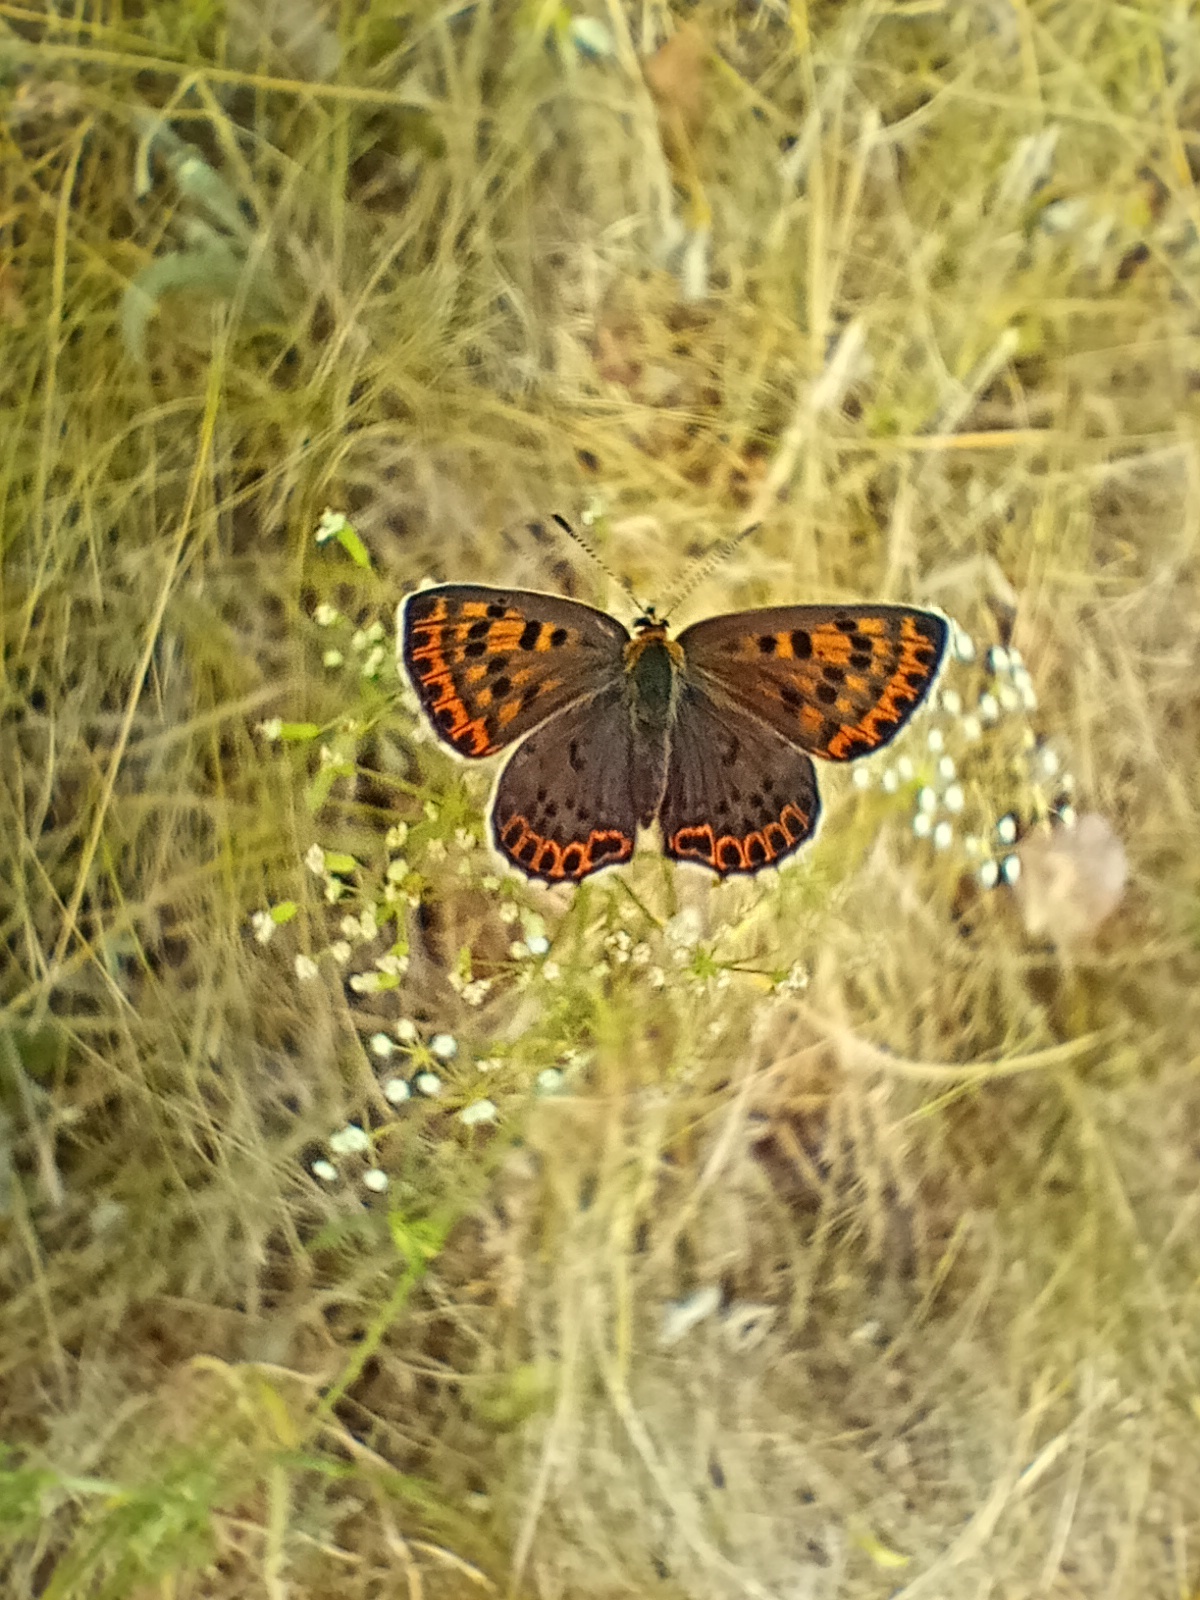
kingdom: Animalia
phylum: Arthropoda
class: Insecta
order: Lepidoptera
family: Lycaenidae
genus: Loweia
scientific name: Loweia tityrus
